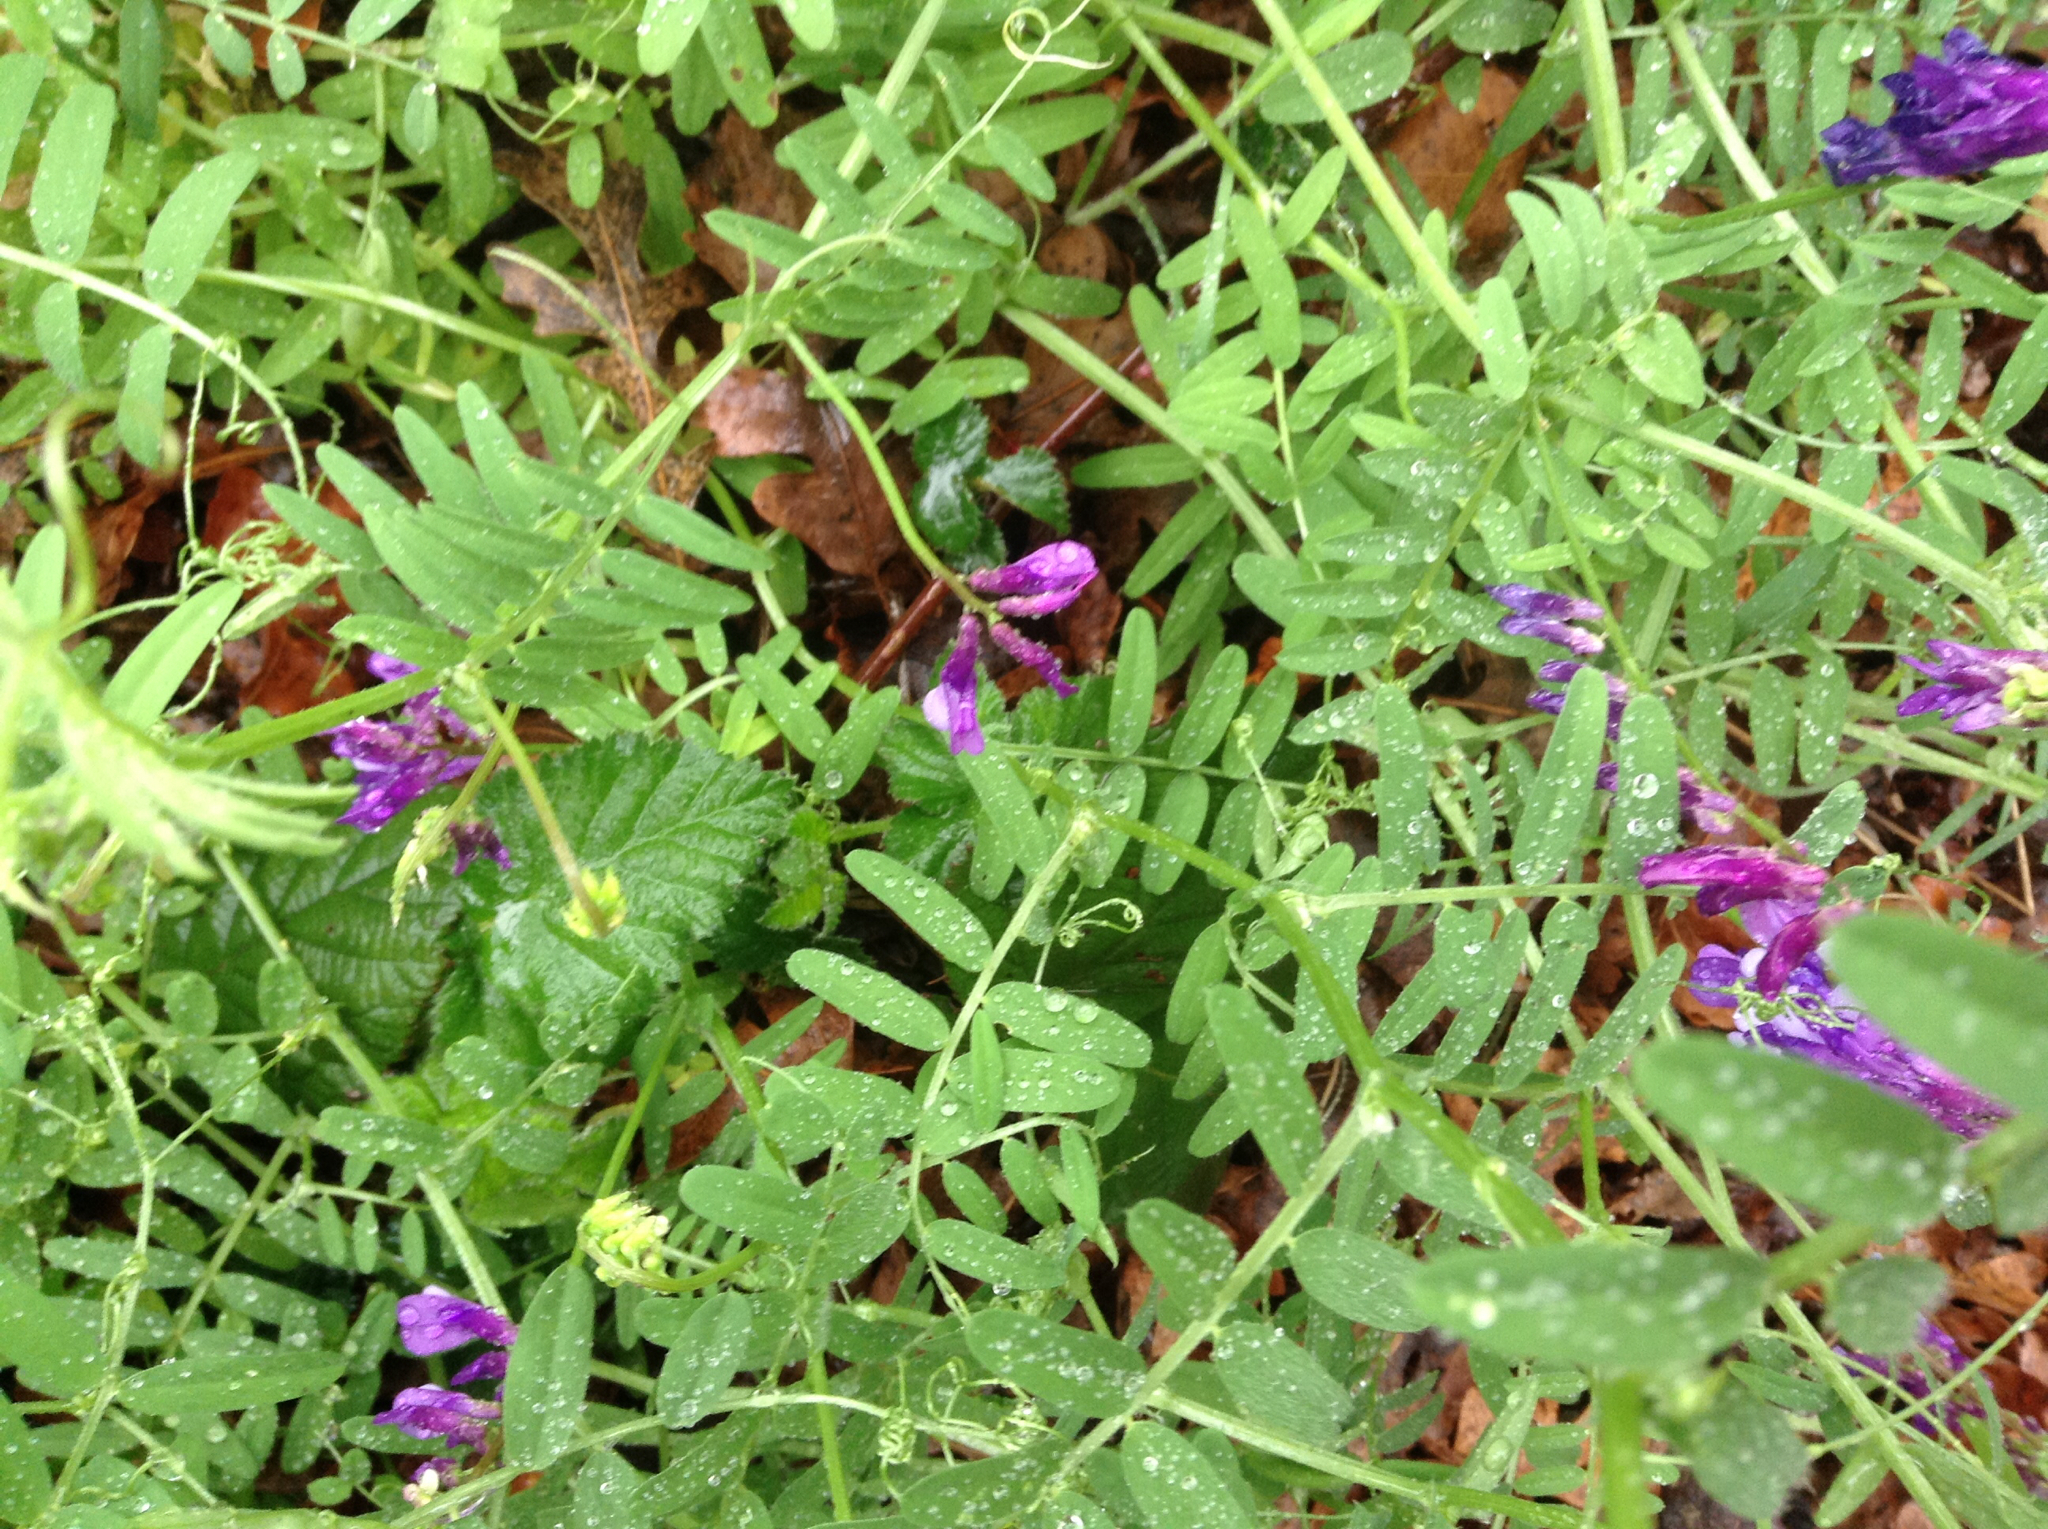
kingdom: Plantae
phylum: Tracheophyta
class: Magnoliopsida
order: Fabales
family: Fabaceae
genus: Vicia
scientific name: Vicia sativa
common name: Garden vetch
